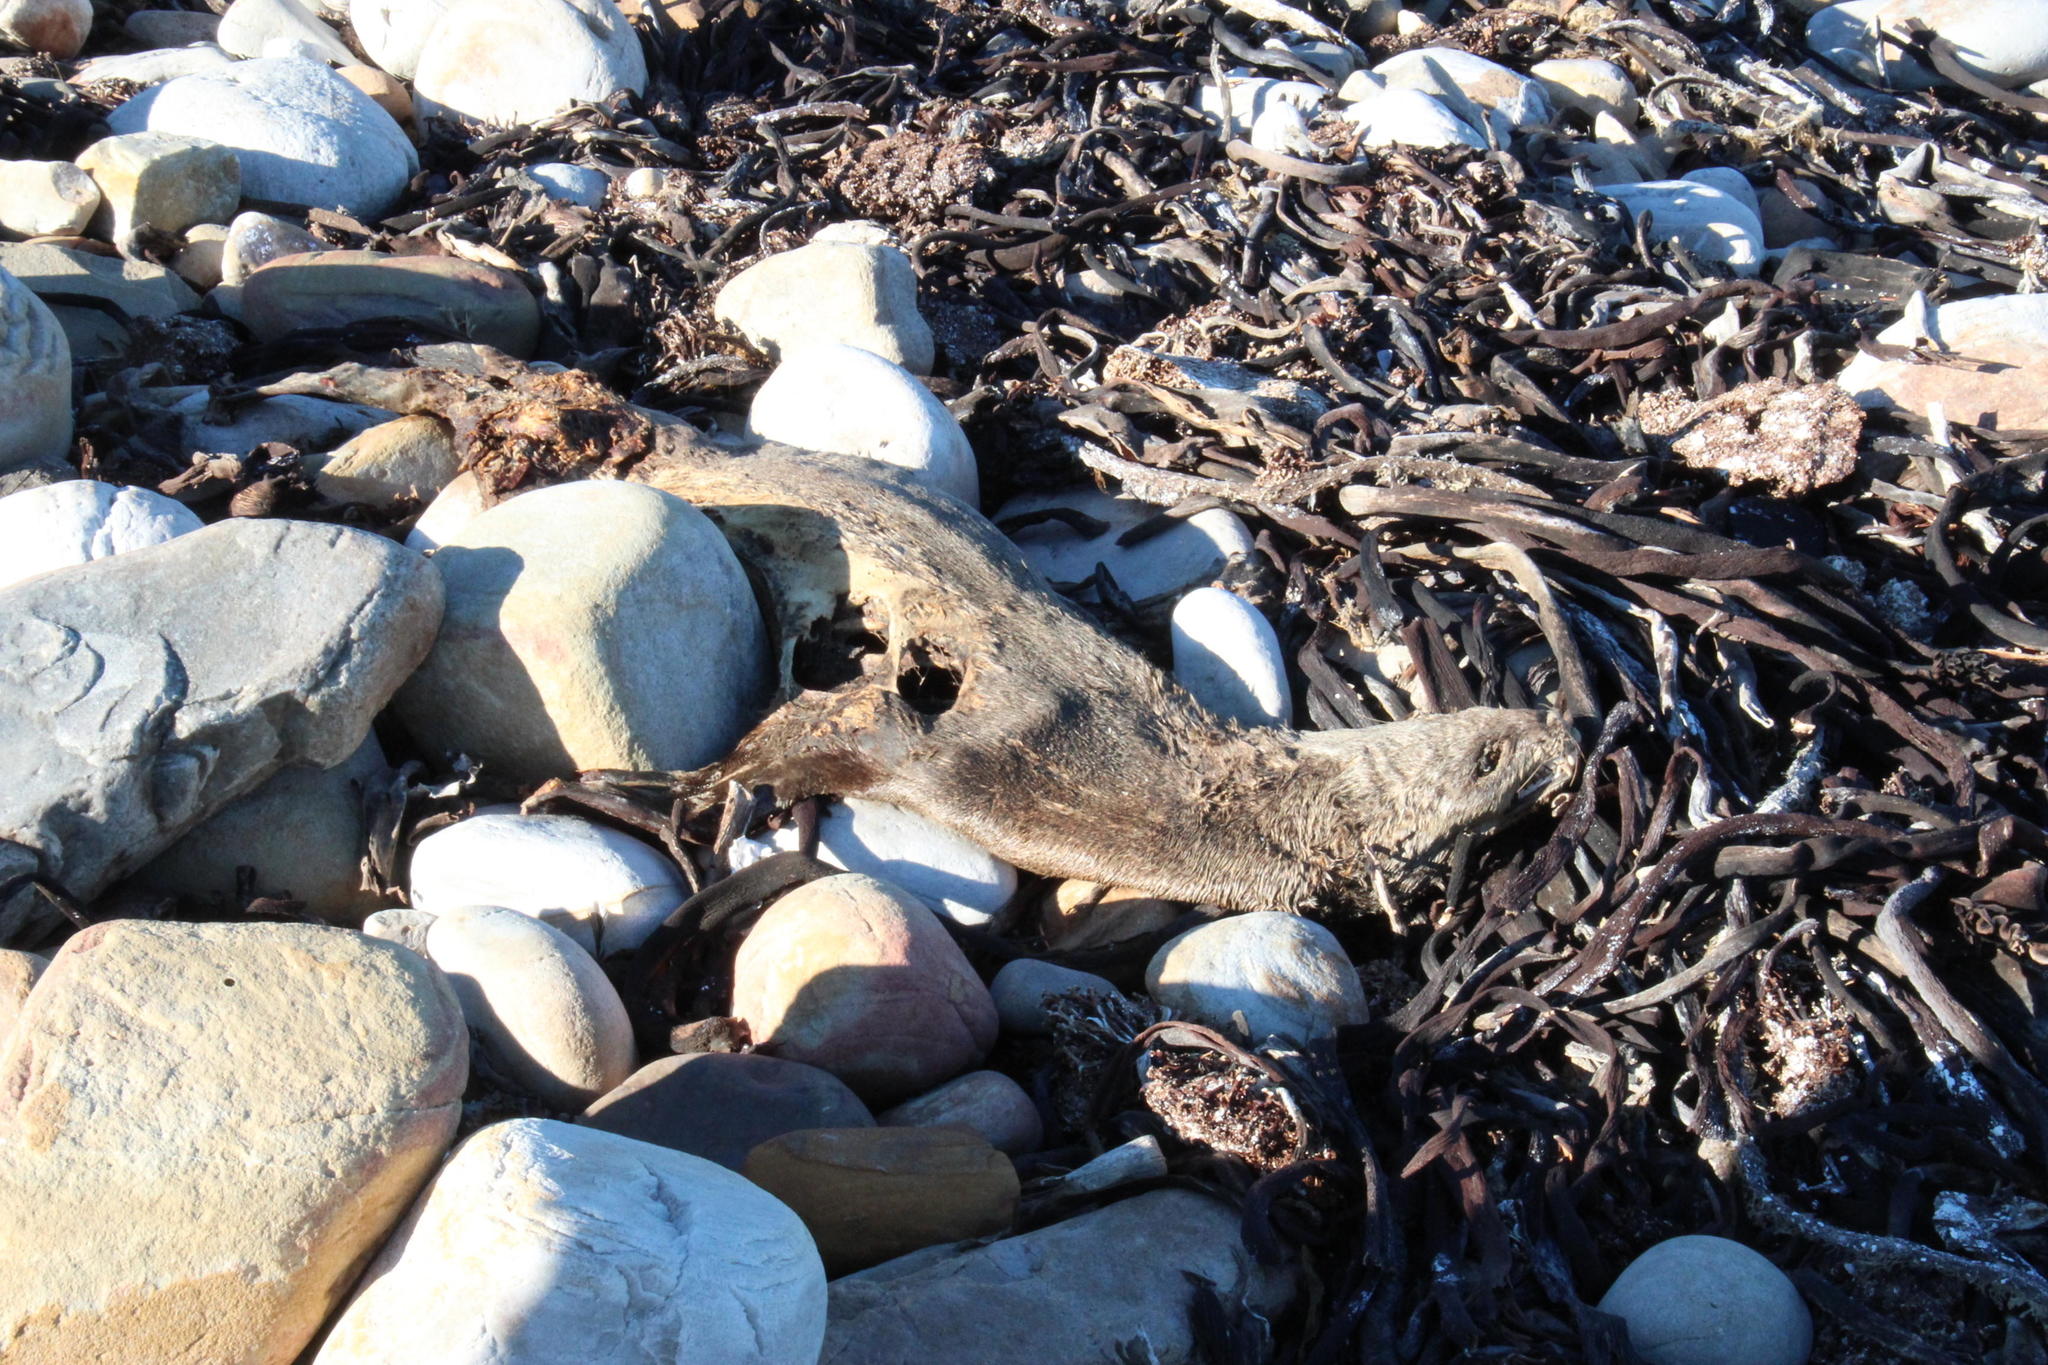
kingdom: Animalia
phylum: Chordata
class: Mammalia
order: Carnivora
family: Otariidae
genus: Arctocephalus
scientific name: Arctocephalus pusillus
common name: Brown fur seal
